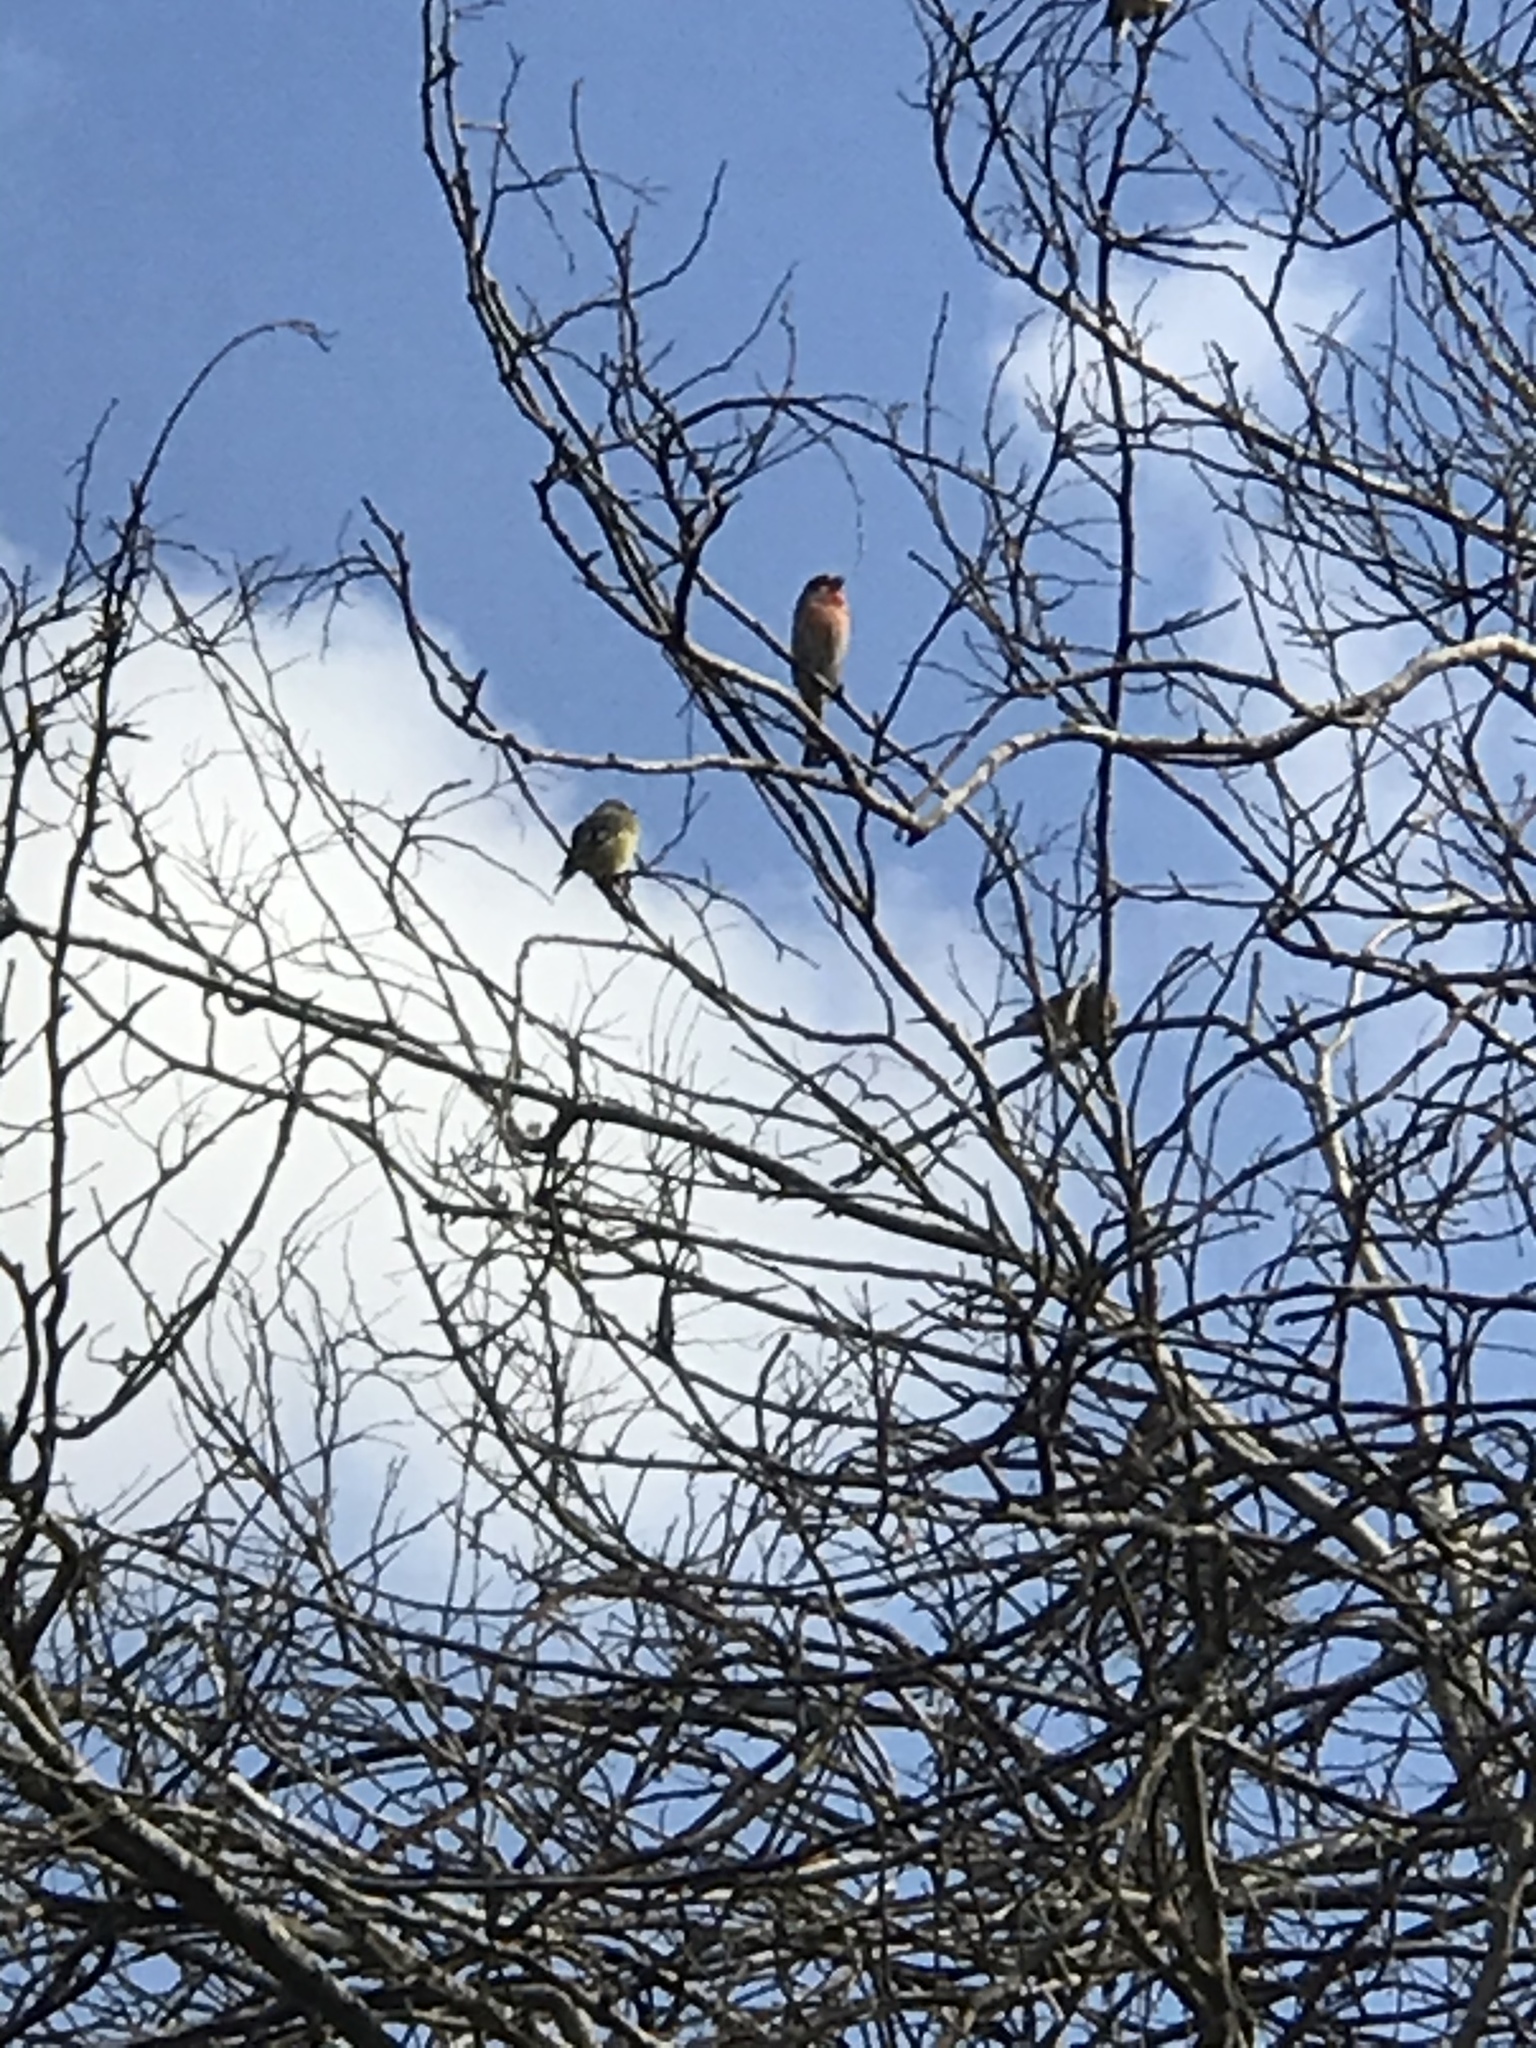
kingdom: Animalia
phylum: Chordata
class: Aves
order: Passeriformes
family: Fringillidae
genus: Haemorhous
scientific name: Haemorhous mexicanus
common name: House finch
